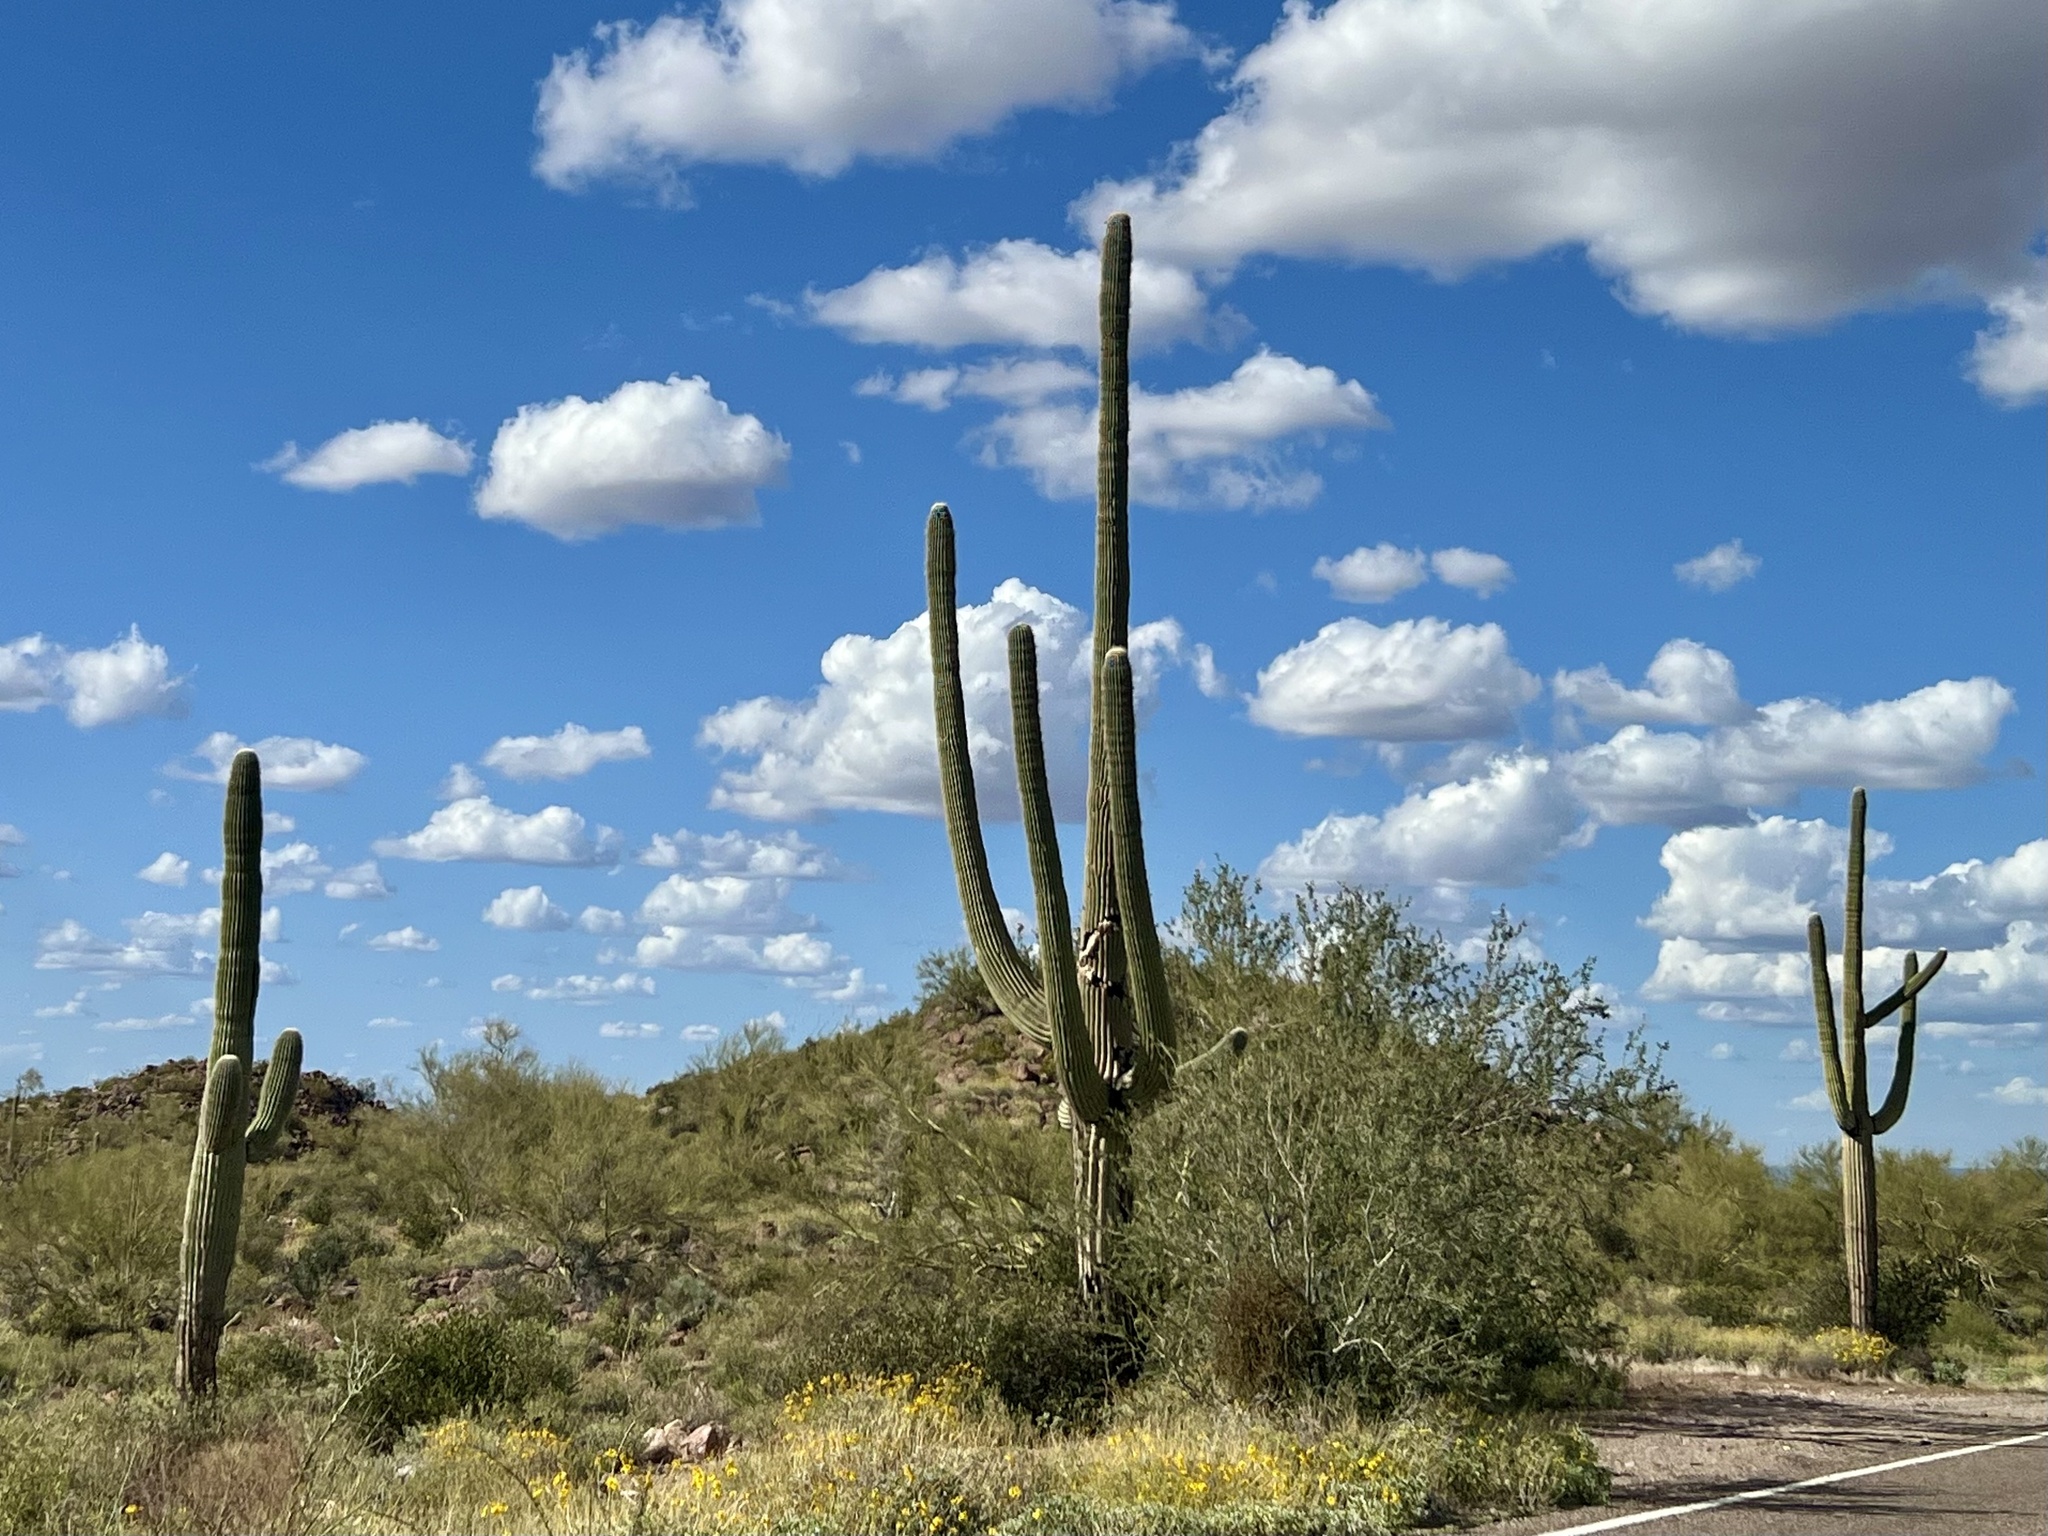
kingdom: Plantae
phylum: Tracheophyta
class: Magnoliopsida
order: Caryophyllales
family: Cactaceae
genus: Carnegiea
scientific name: Carnegiea gigantea
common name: Saguaro
